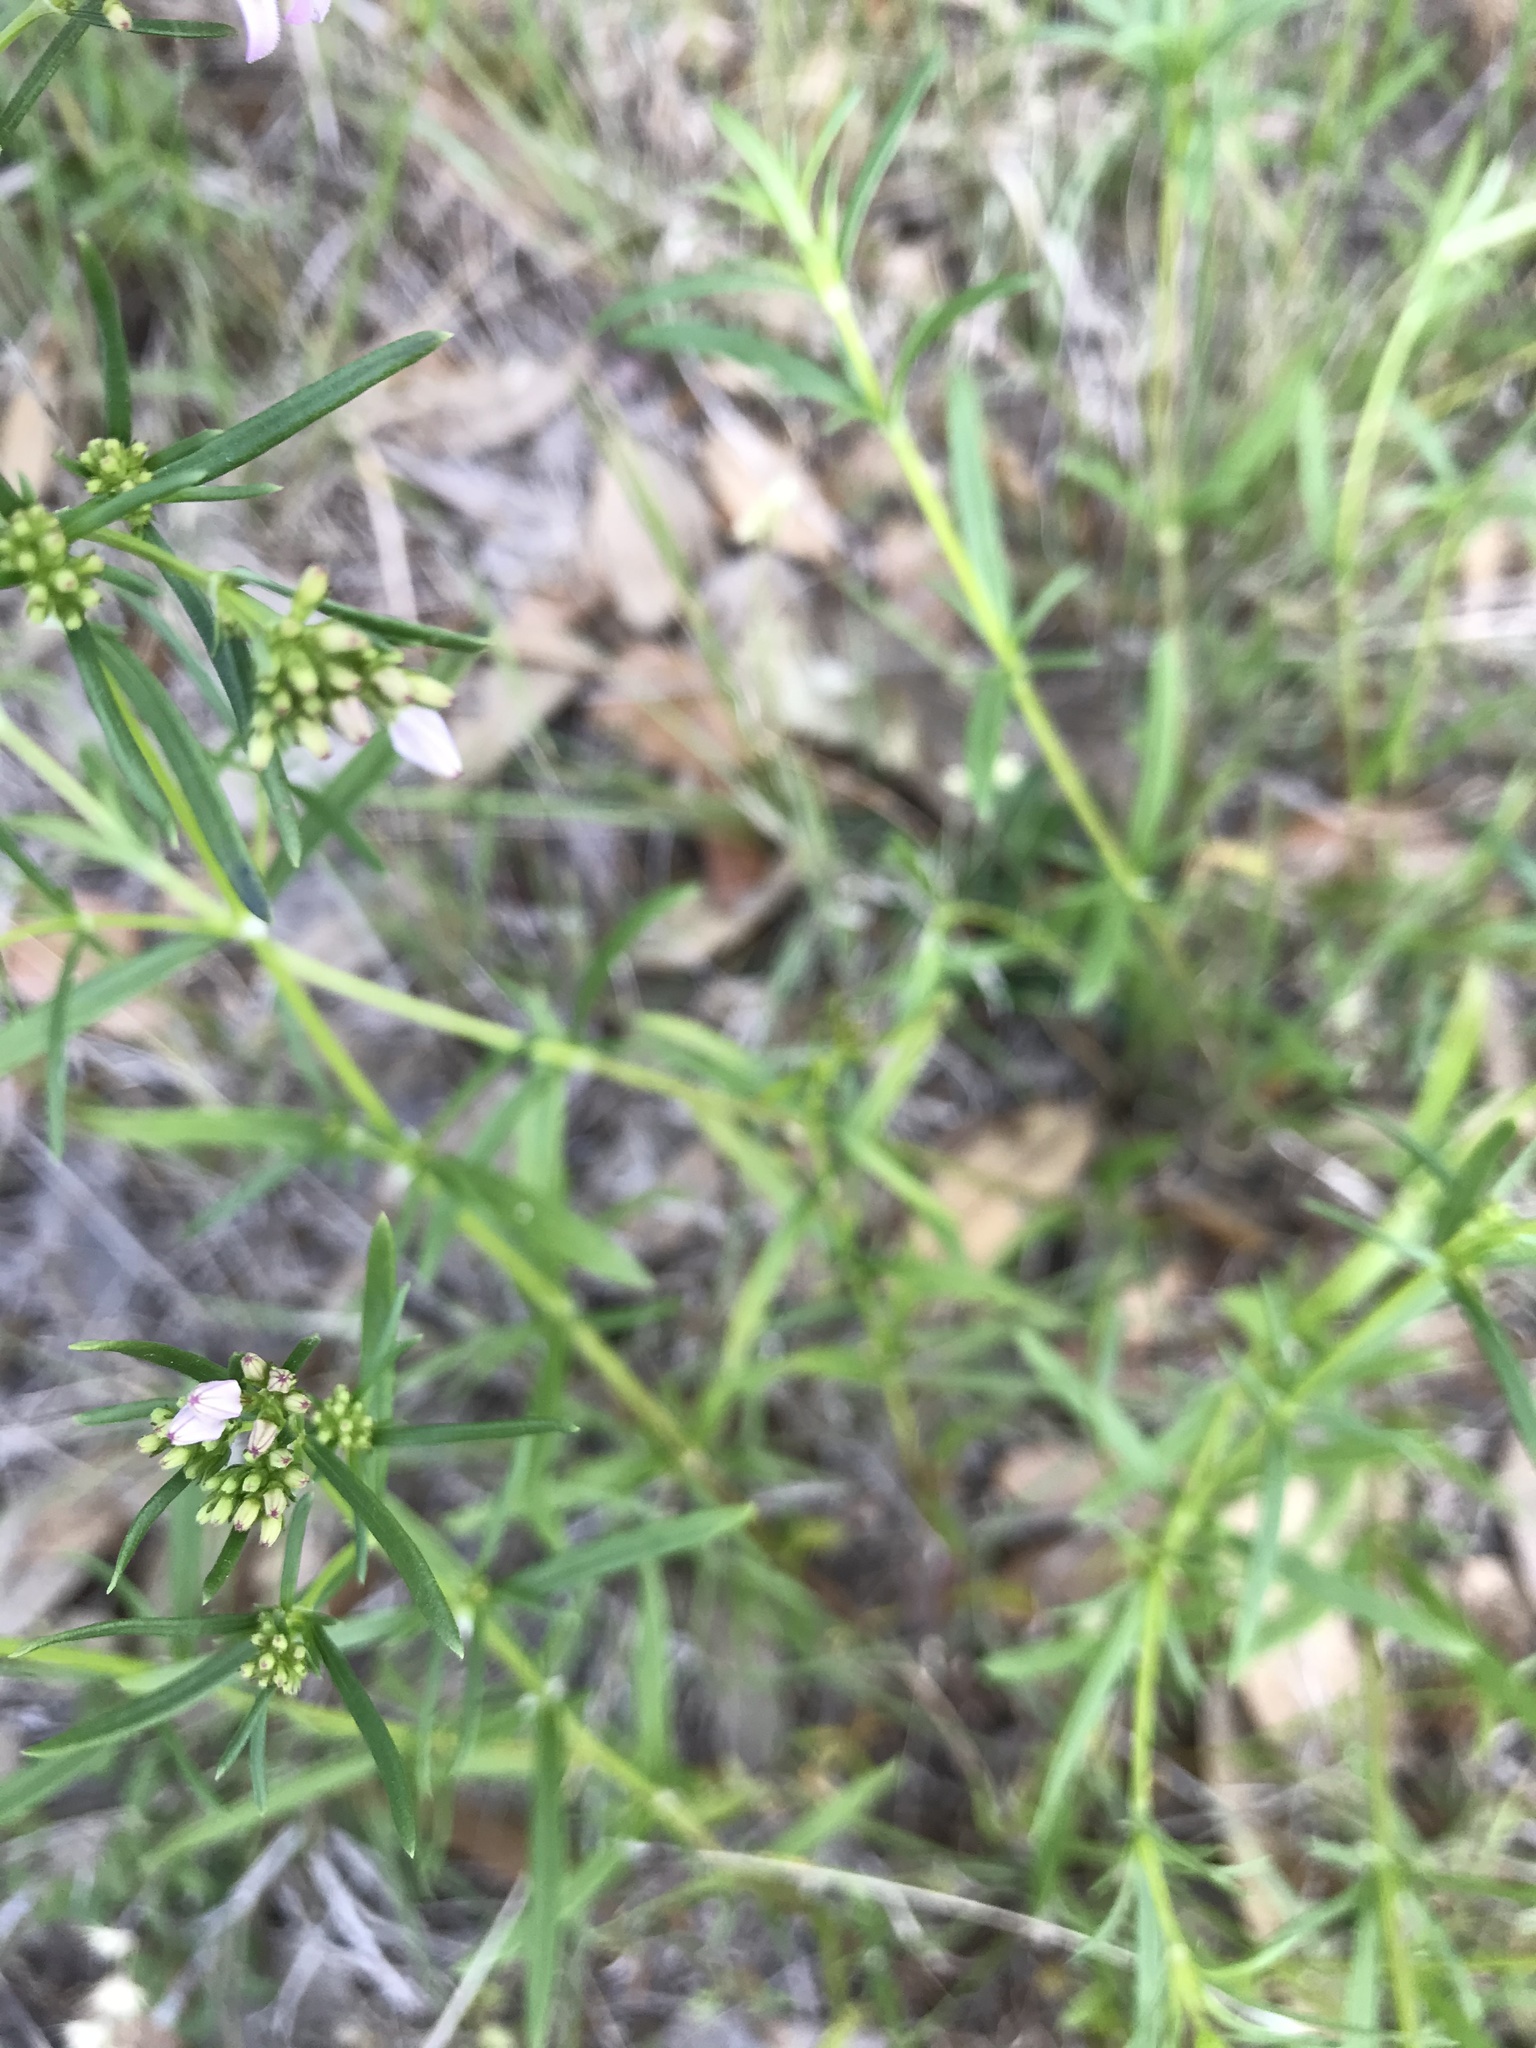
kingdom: Plantae
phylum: Tracheophyta
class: Magnoliopsida
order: Gentianales
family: Rubiaceae
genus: Stenaria
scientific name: Stenaria nigricans
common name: Diamondflowers
